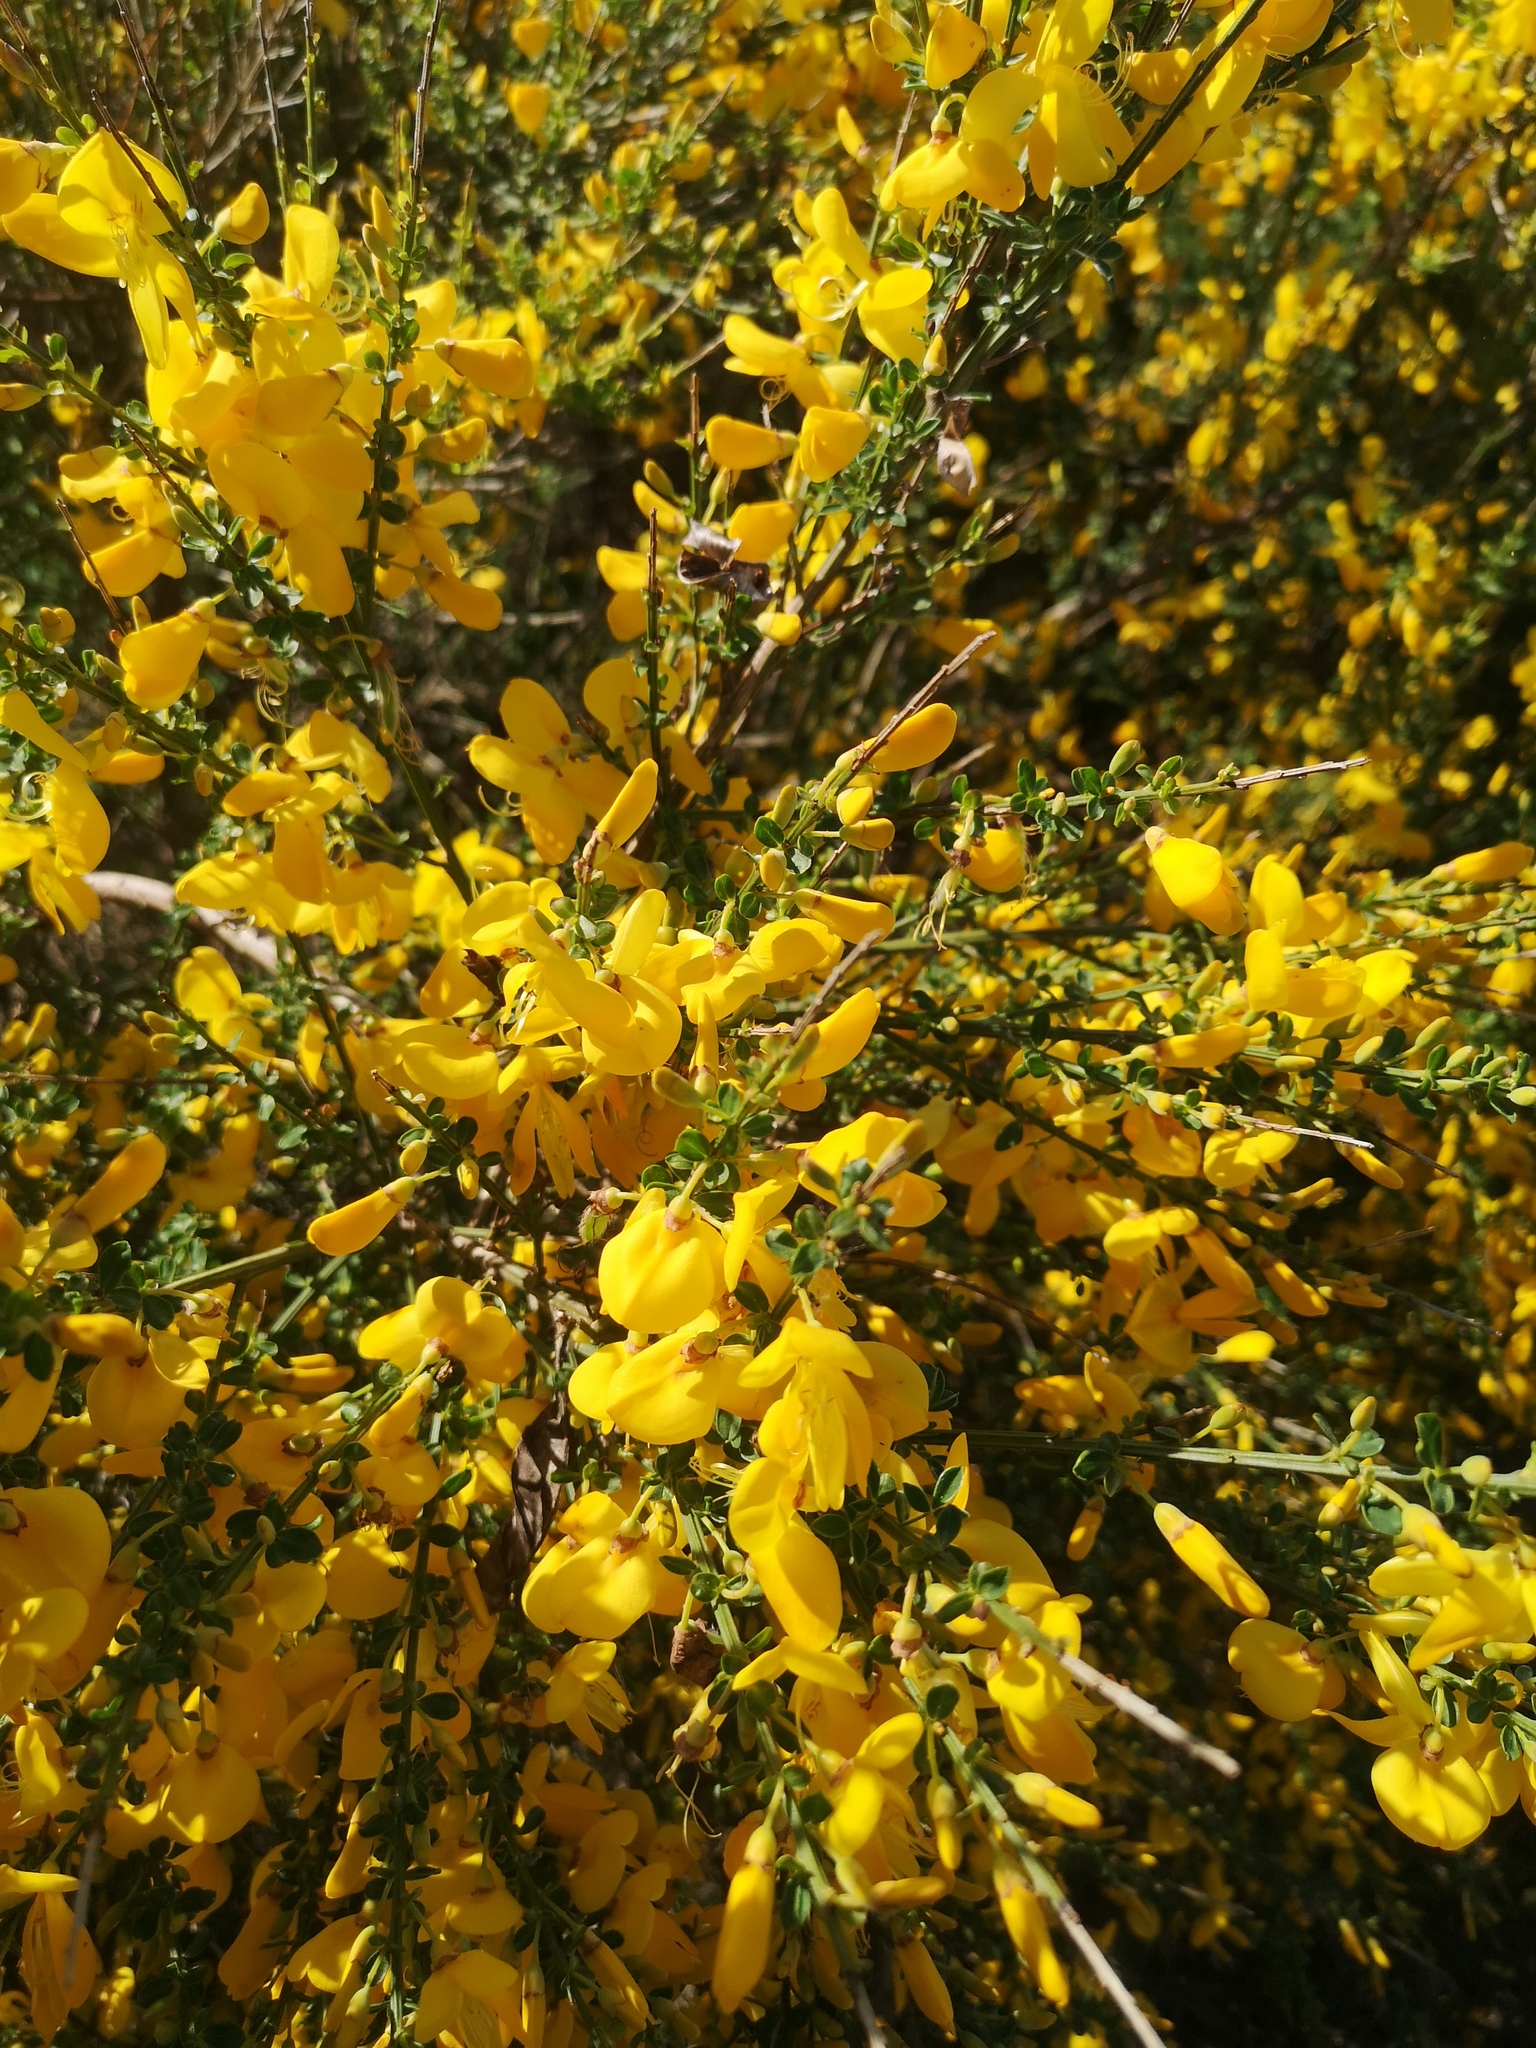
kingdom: Plantae
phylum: Tracheophyta
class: Magnoliopsida
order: Fabales
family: Fabaceae
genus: Cytisus
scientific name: Cytisus scoparius
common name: Scotch broom
